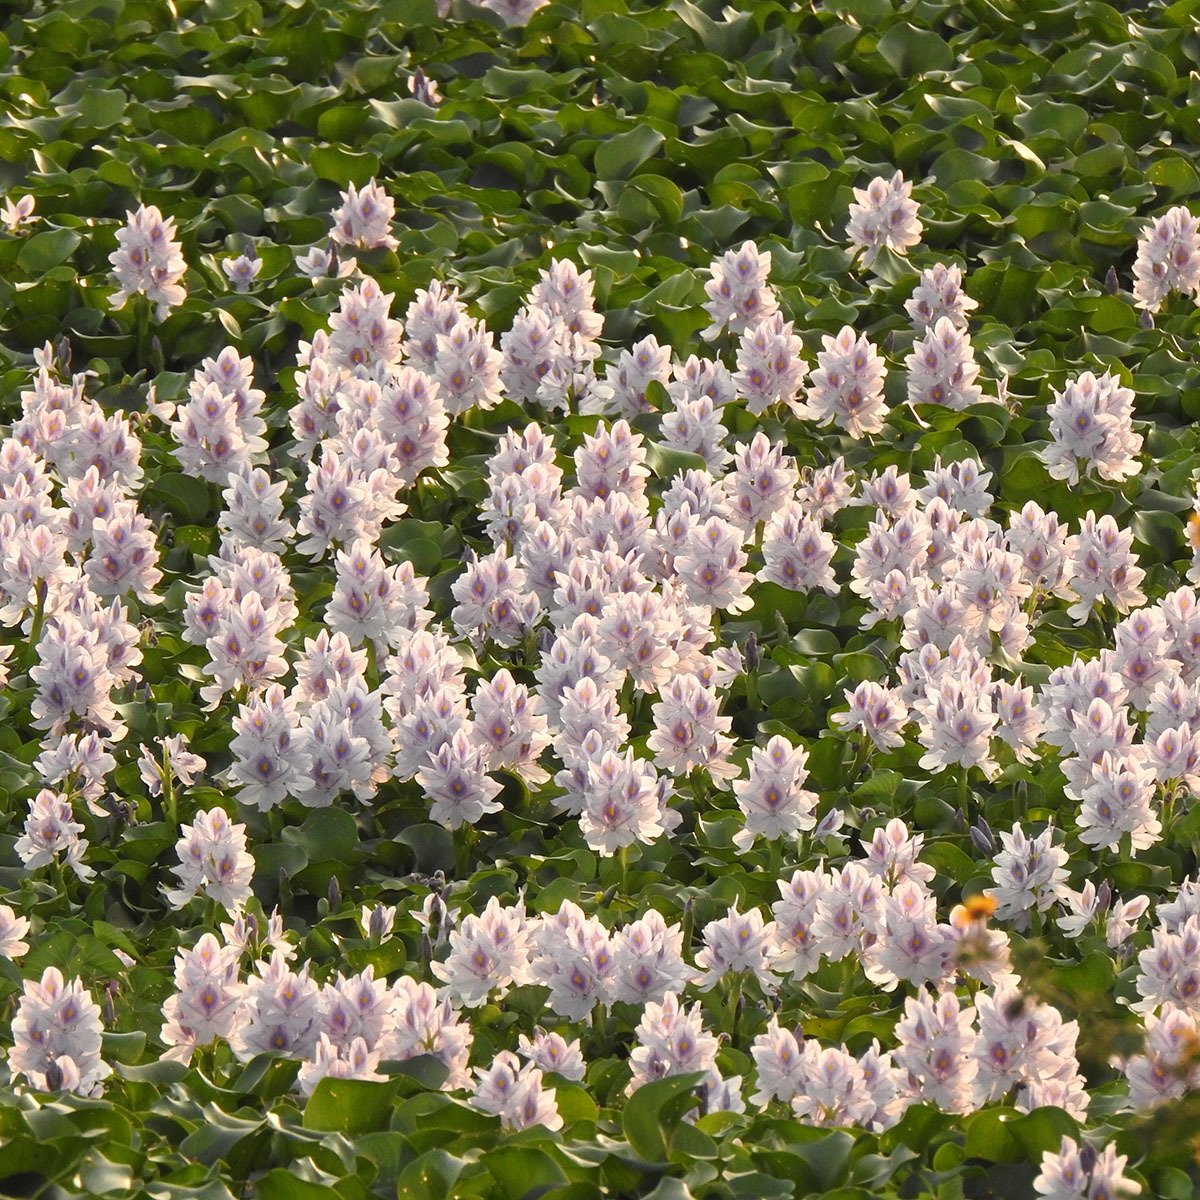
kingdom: Plantae
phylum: Tracheophyta
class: Liliopsida
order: Commelinales
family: Pontederiaceae
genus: Pontederia
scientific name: Pontederia crassipes
